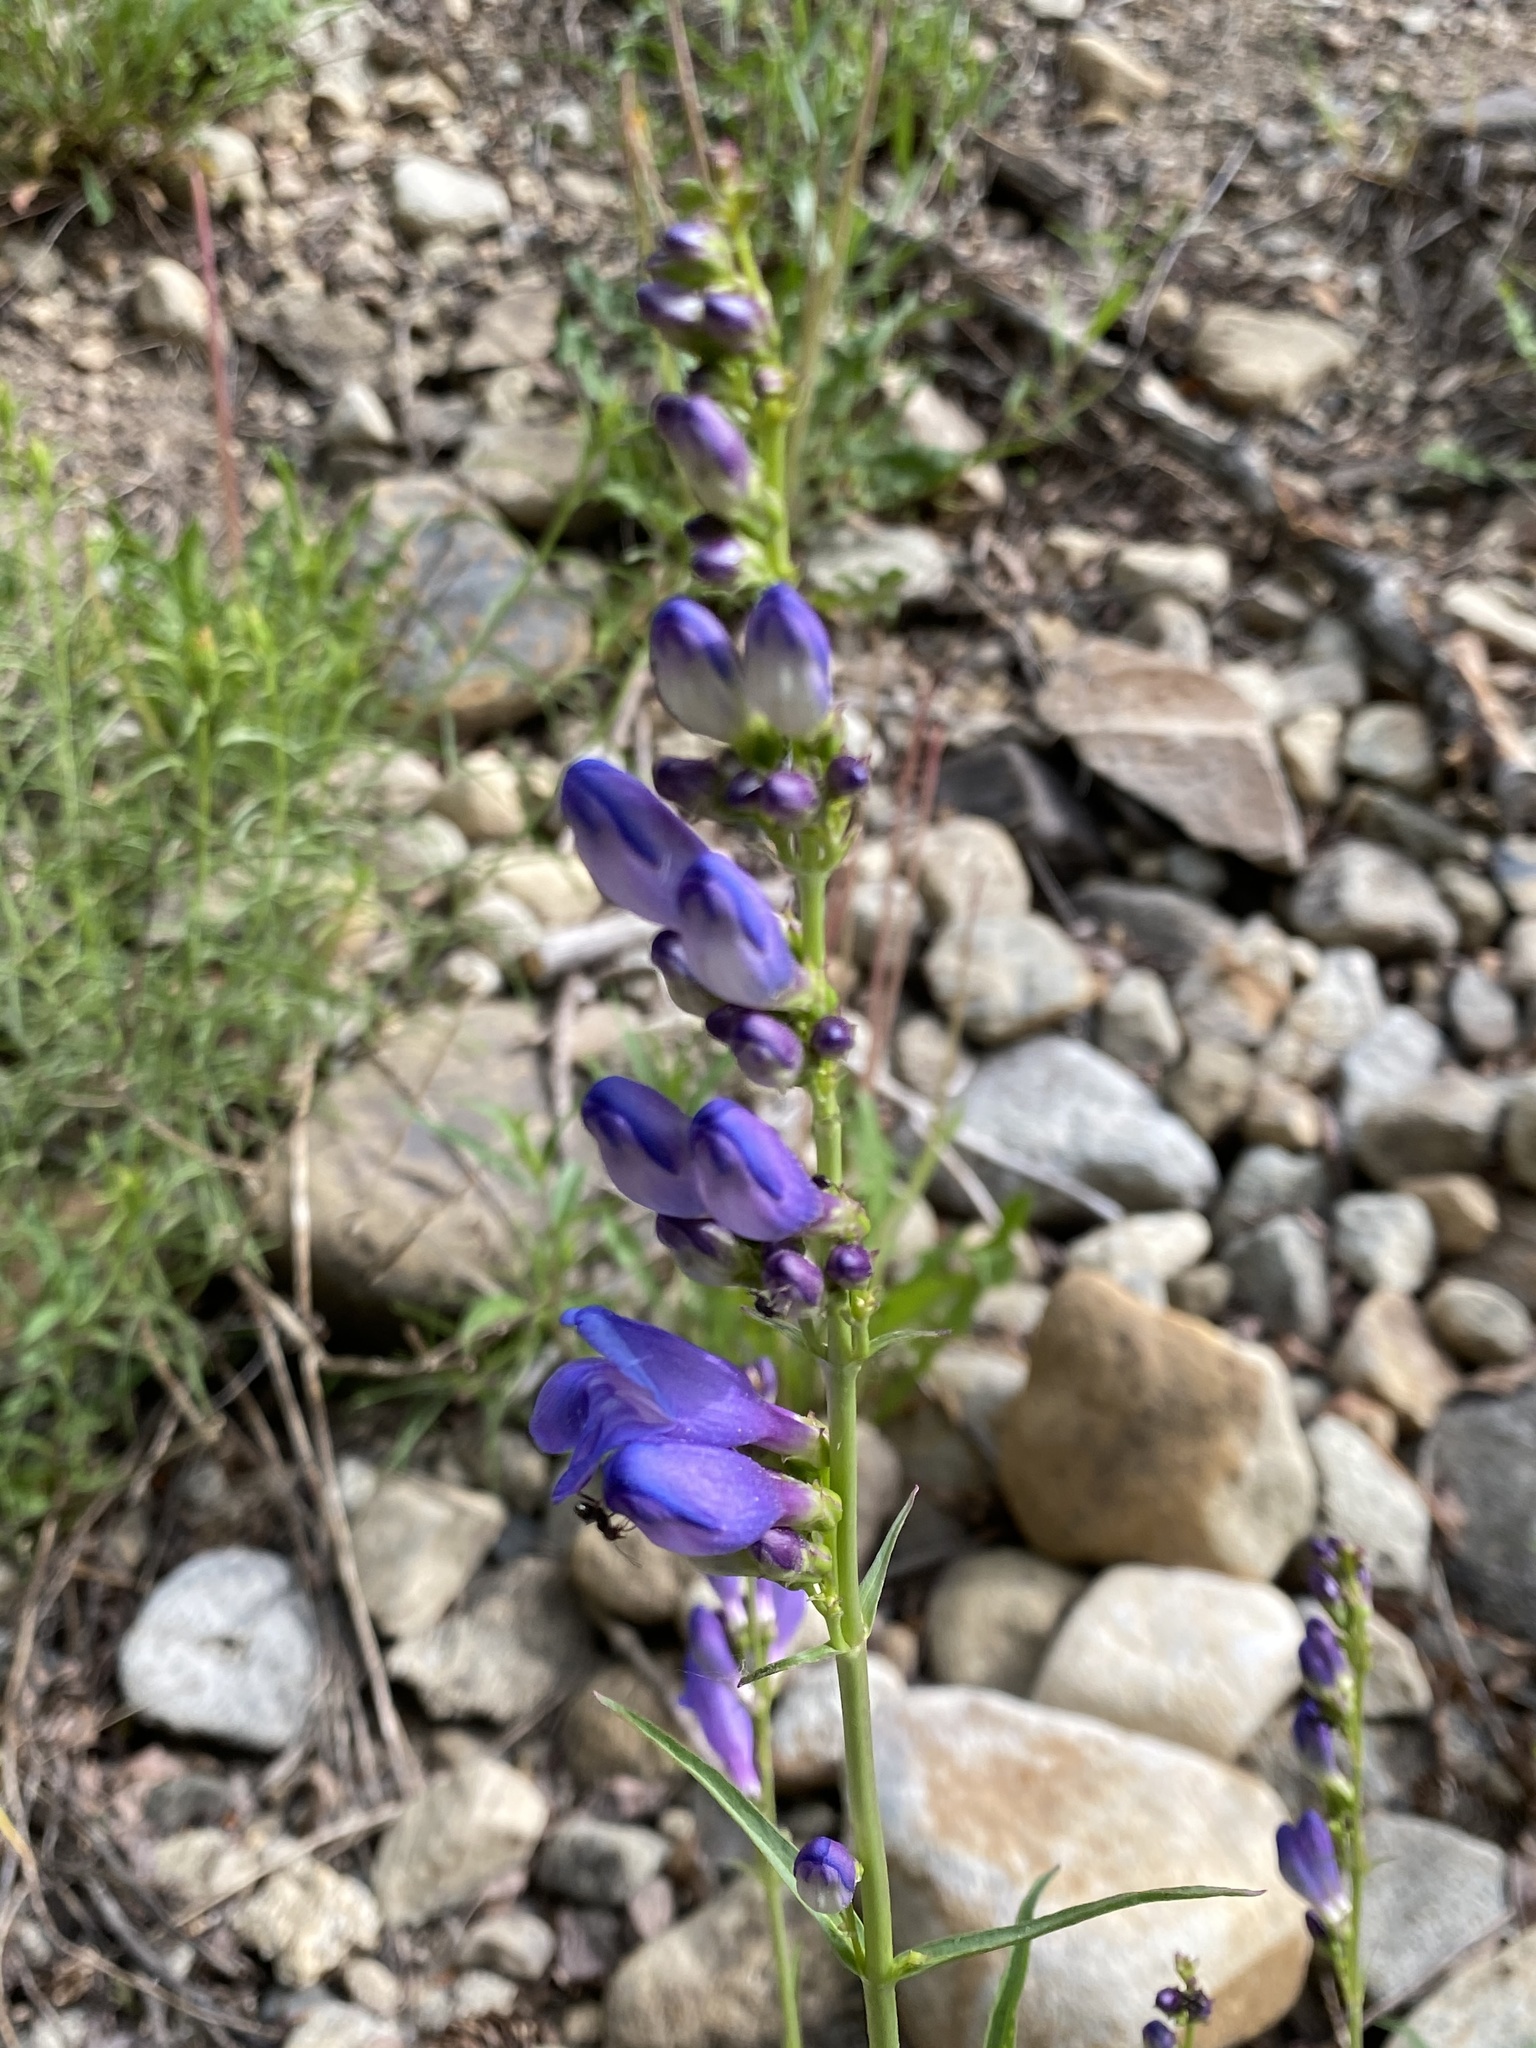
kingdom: Plantae
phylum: Tracheophyta
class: Magnoliopsida
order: Lamiales
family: Plantaginaceae
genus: Penstemon
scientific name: Penstemon strictus
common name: Rocky mountain penstemon
